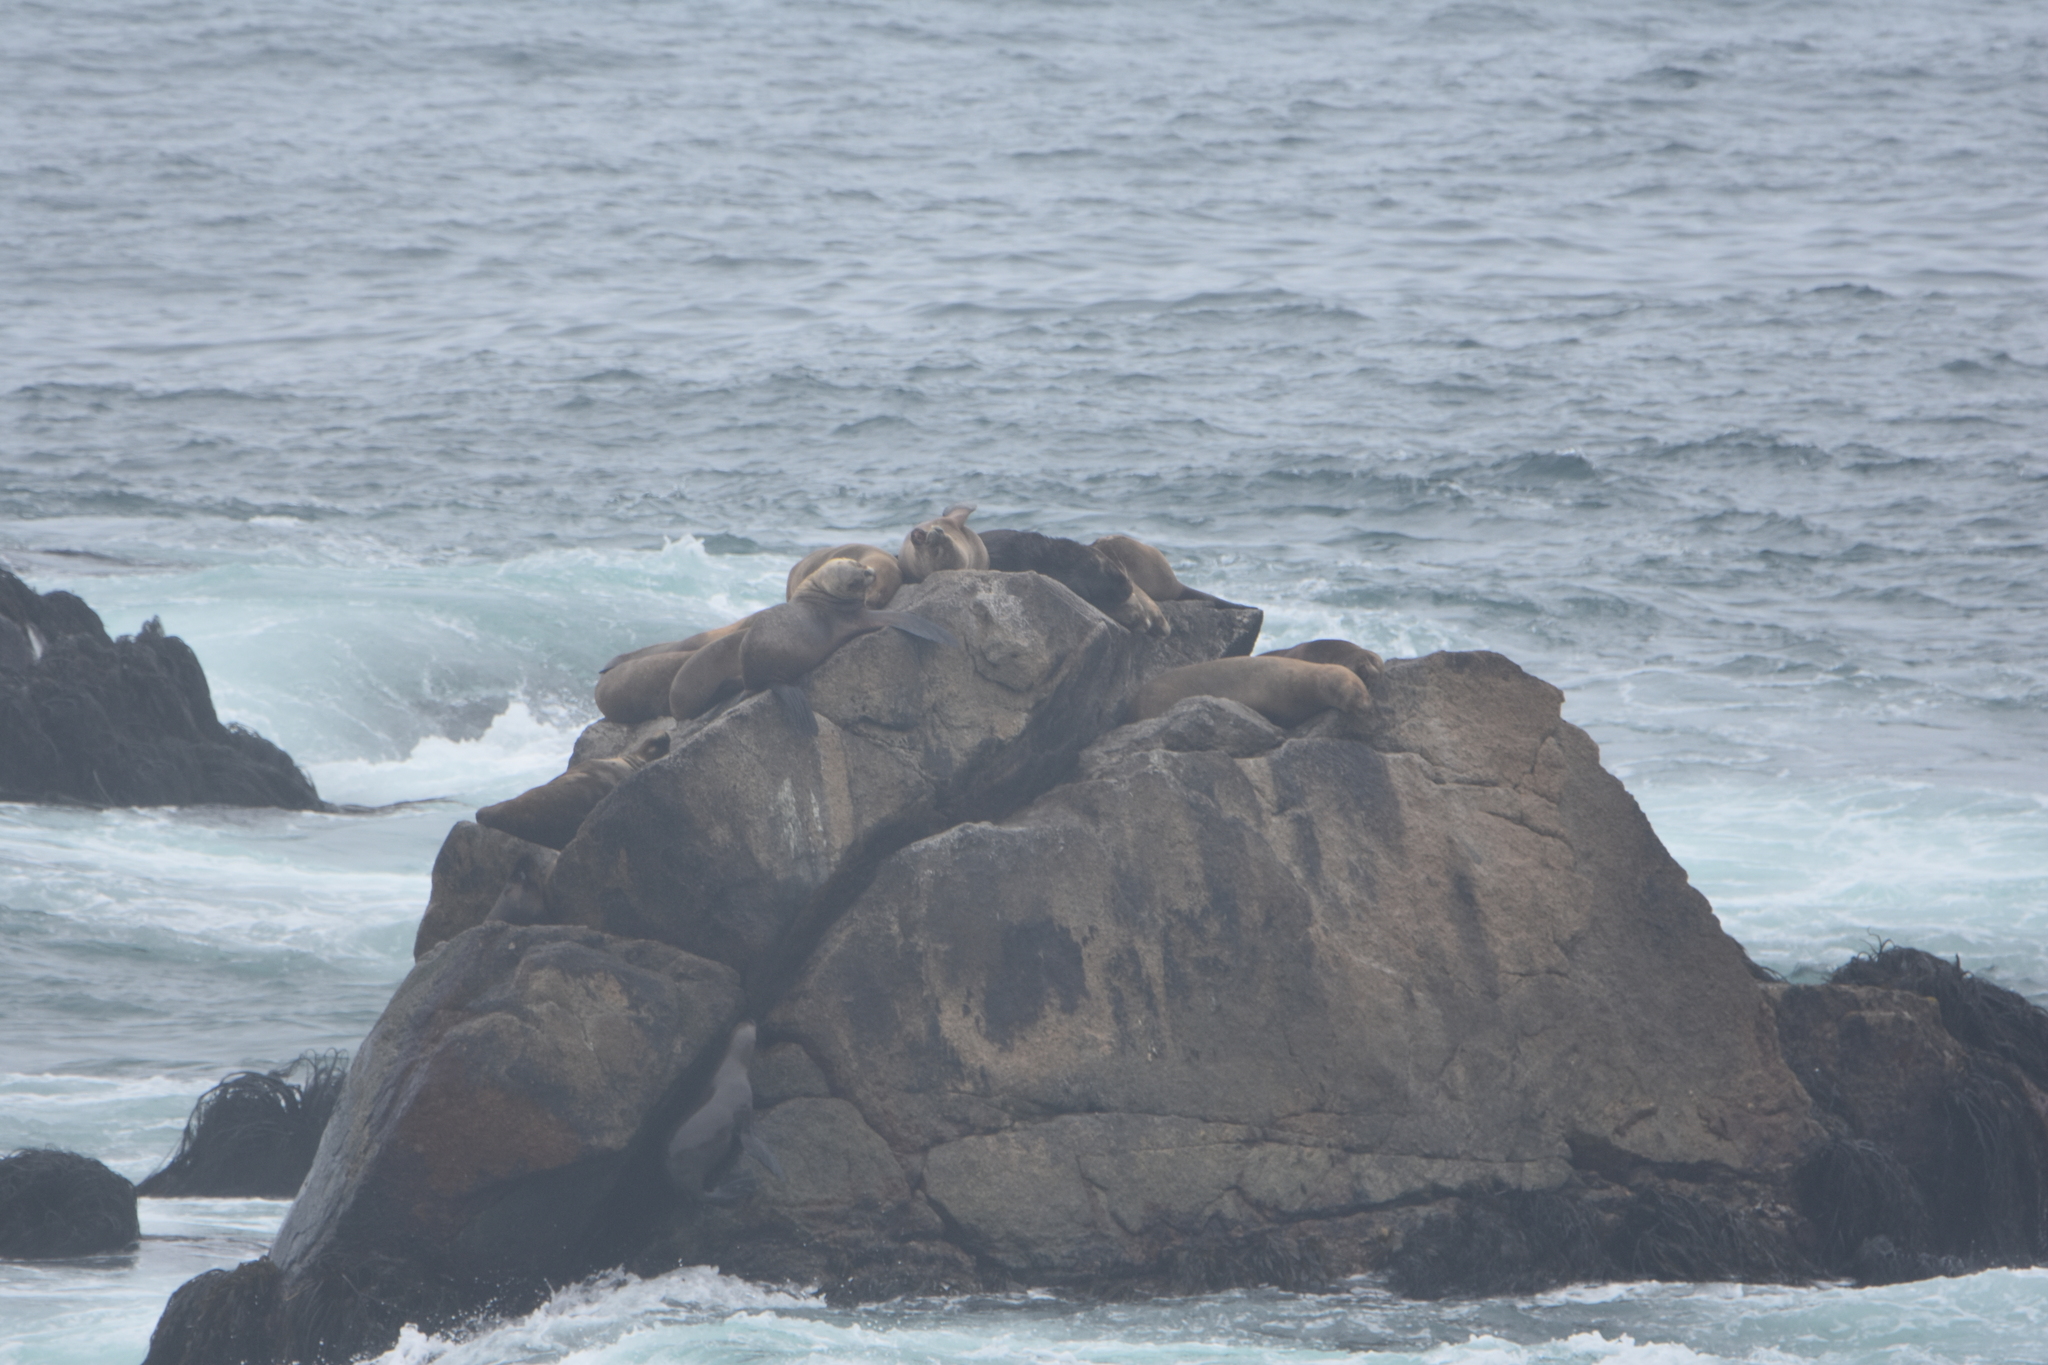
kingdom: Animalia
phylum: Chordata
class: Mammalia
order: Carnivora
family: Otariidae
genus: Otaria
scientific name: Otaria byronia
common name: South american sea lion
